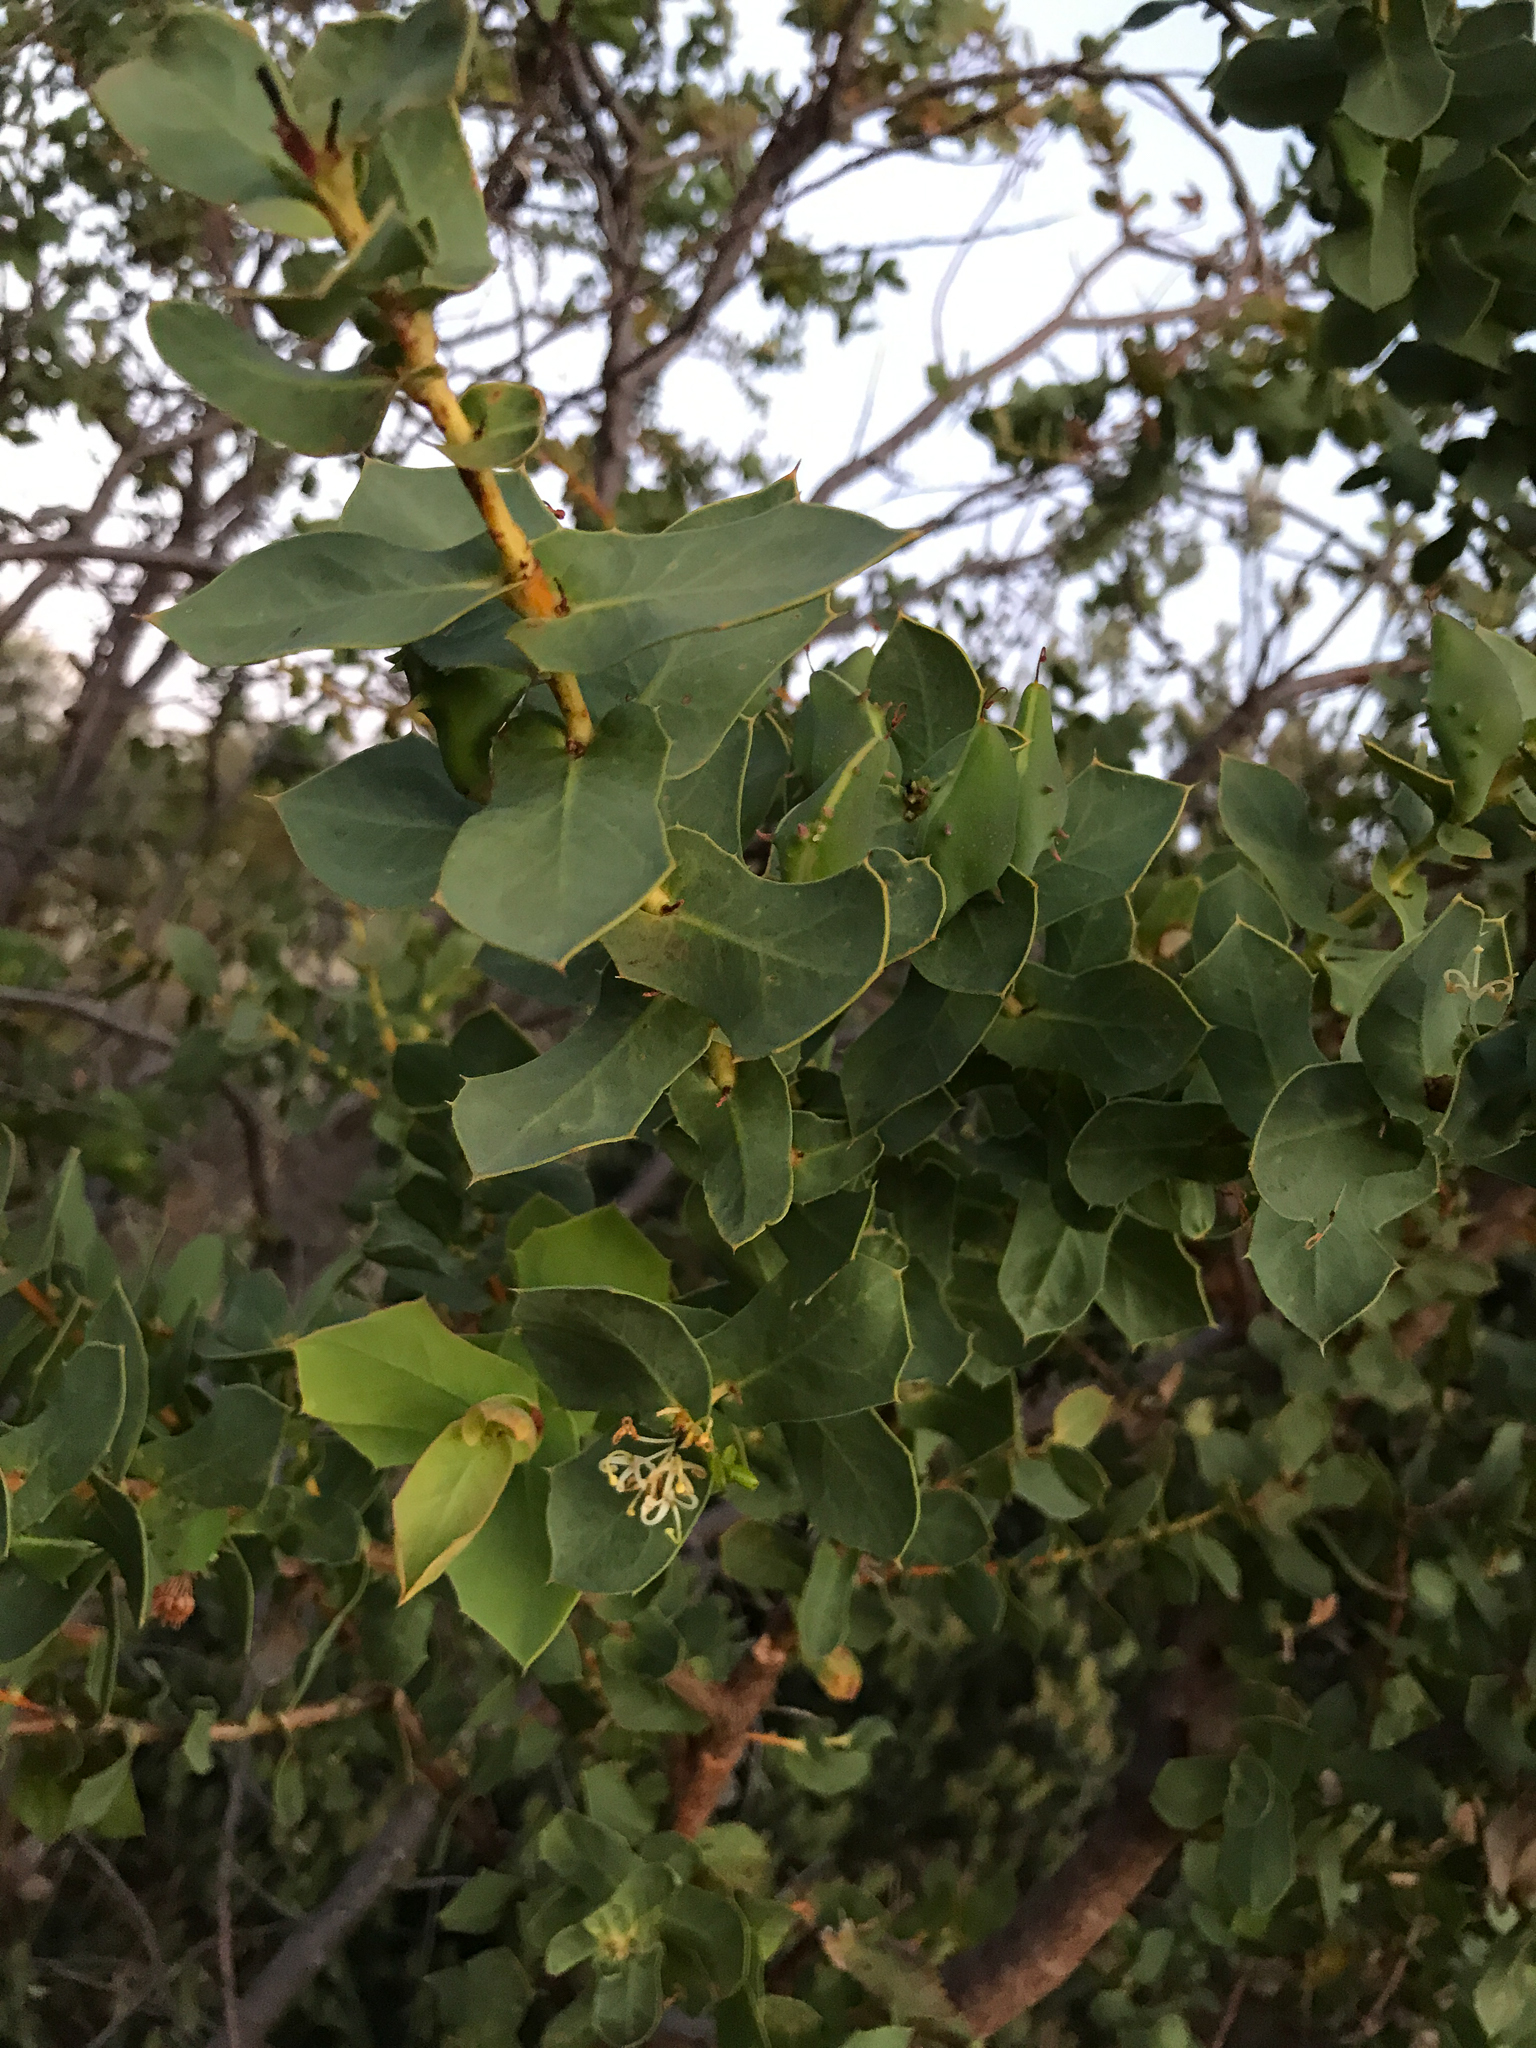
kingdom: Plantae
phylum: Tracheophyta
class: Magnoliopsida
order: Proteales
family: Proteaceae
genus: Hakea
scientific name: Hakea prostrata
